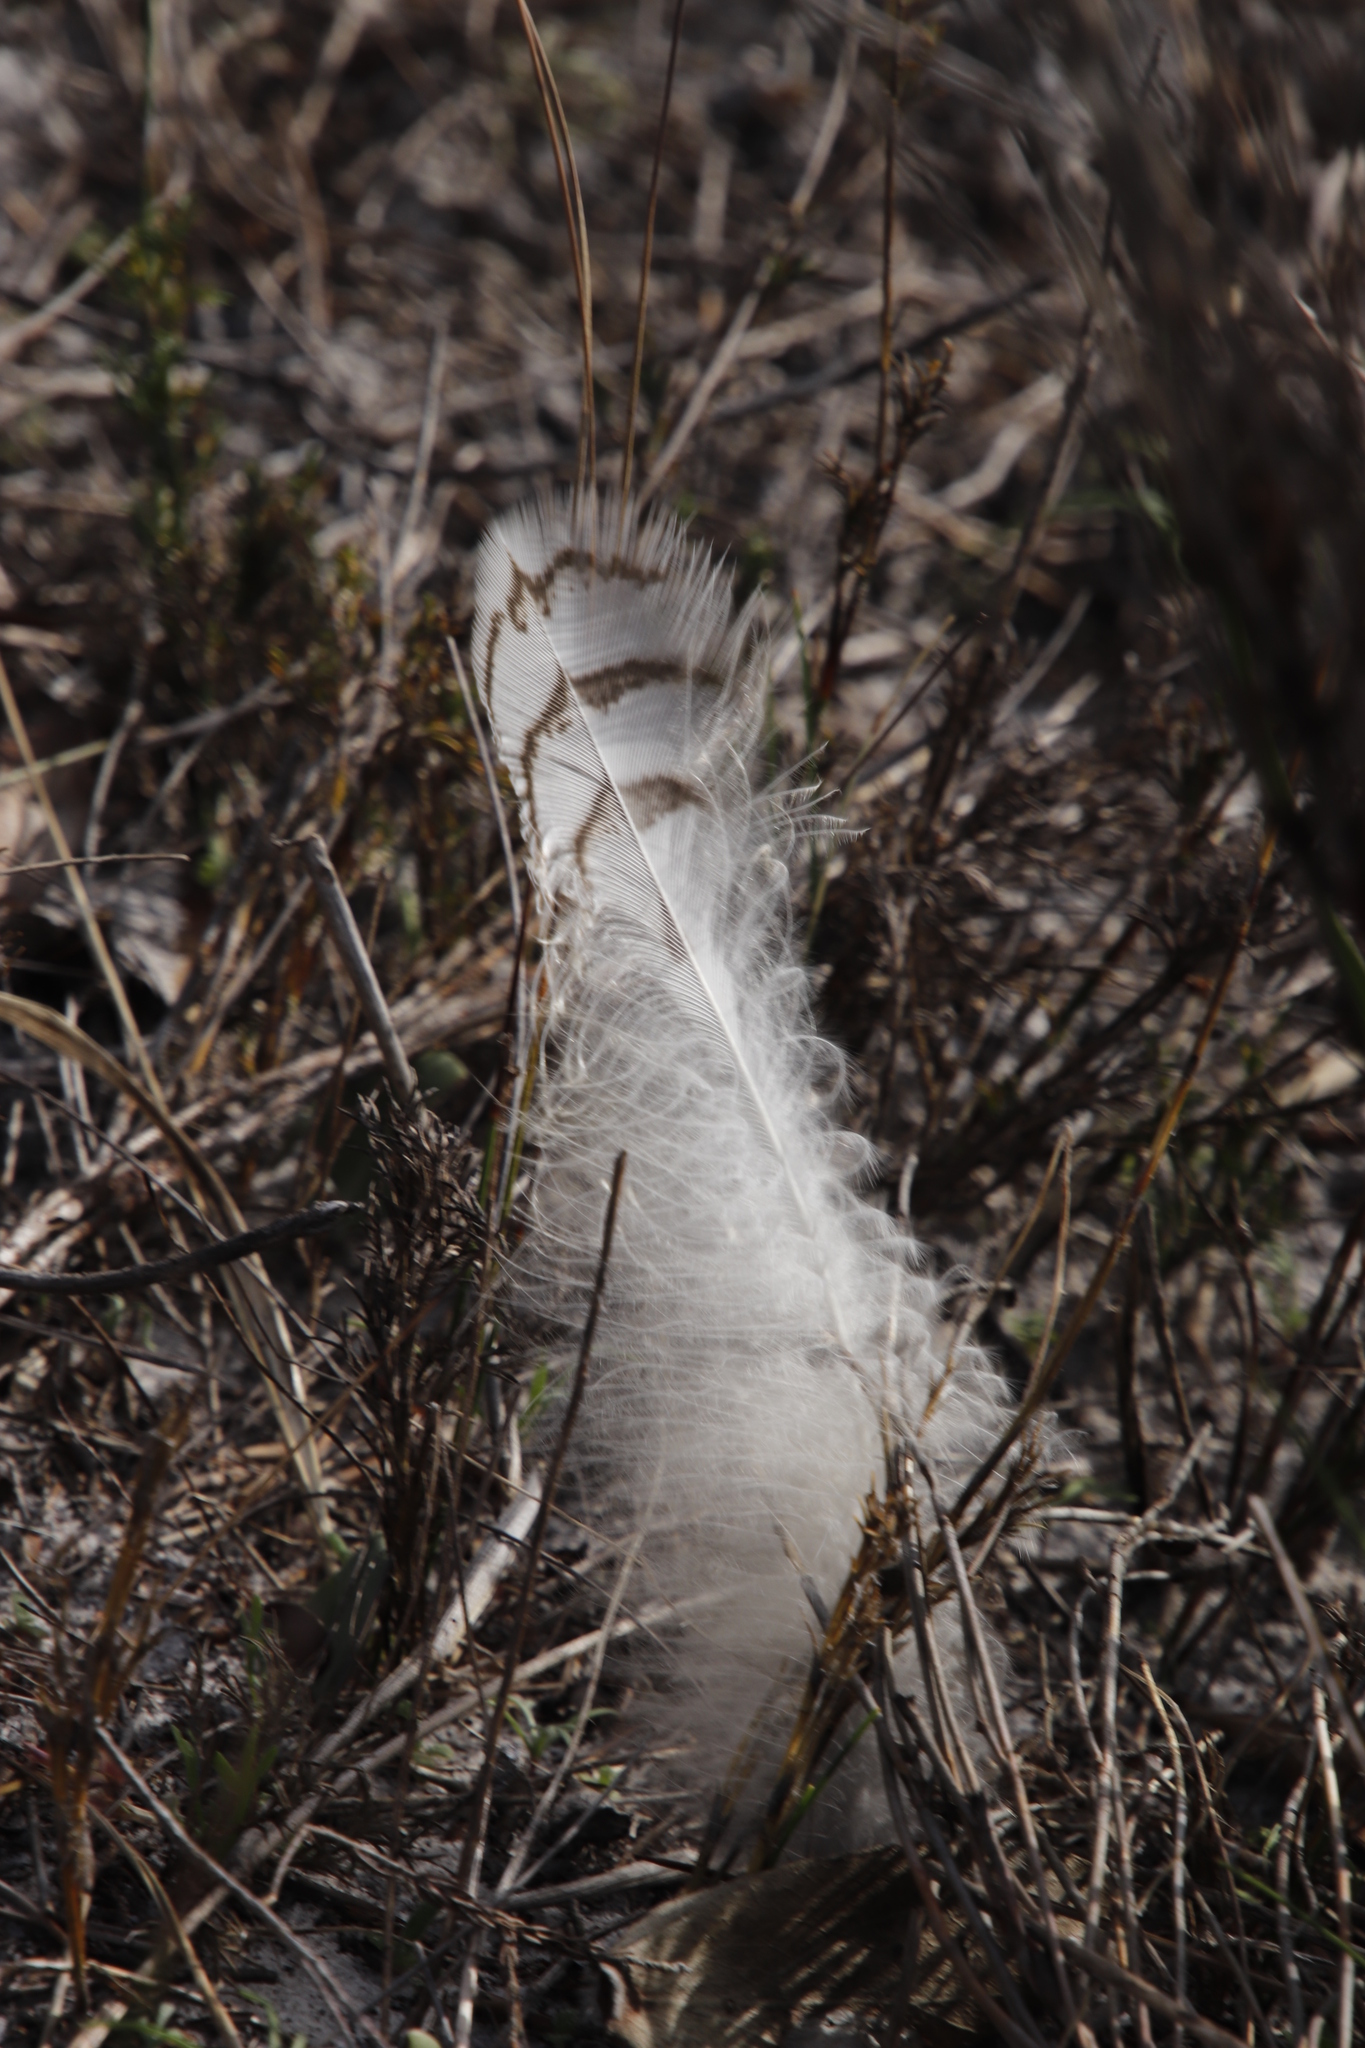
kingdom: Animalia
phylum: Chordata
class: Aves
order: Strigiformes
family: Strigidae
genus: Bubo
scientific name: Bubo africanus
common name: Spotted eagle-owl
